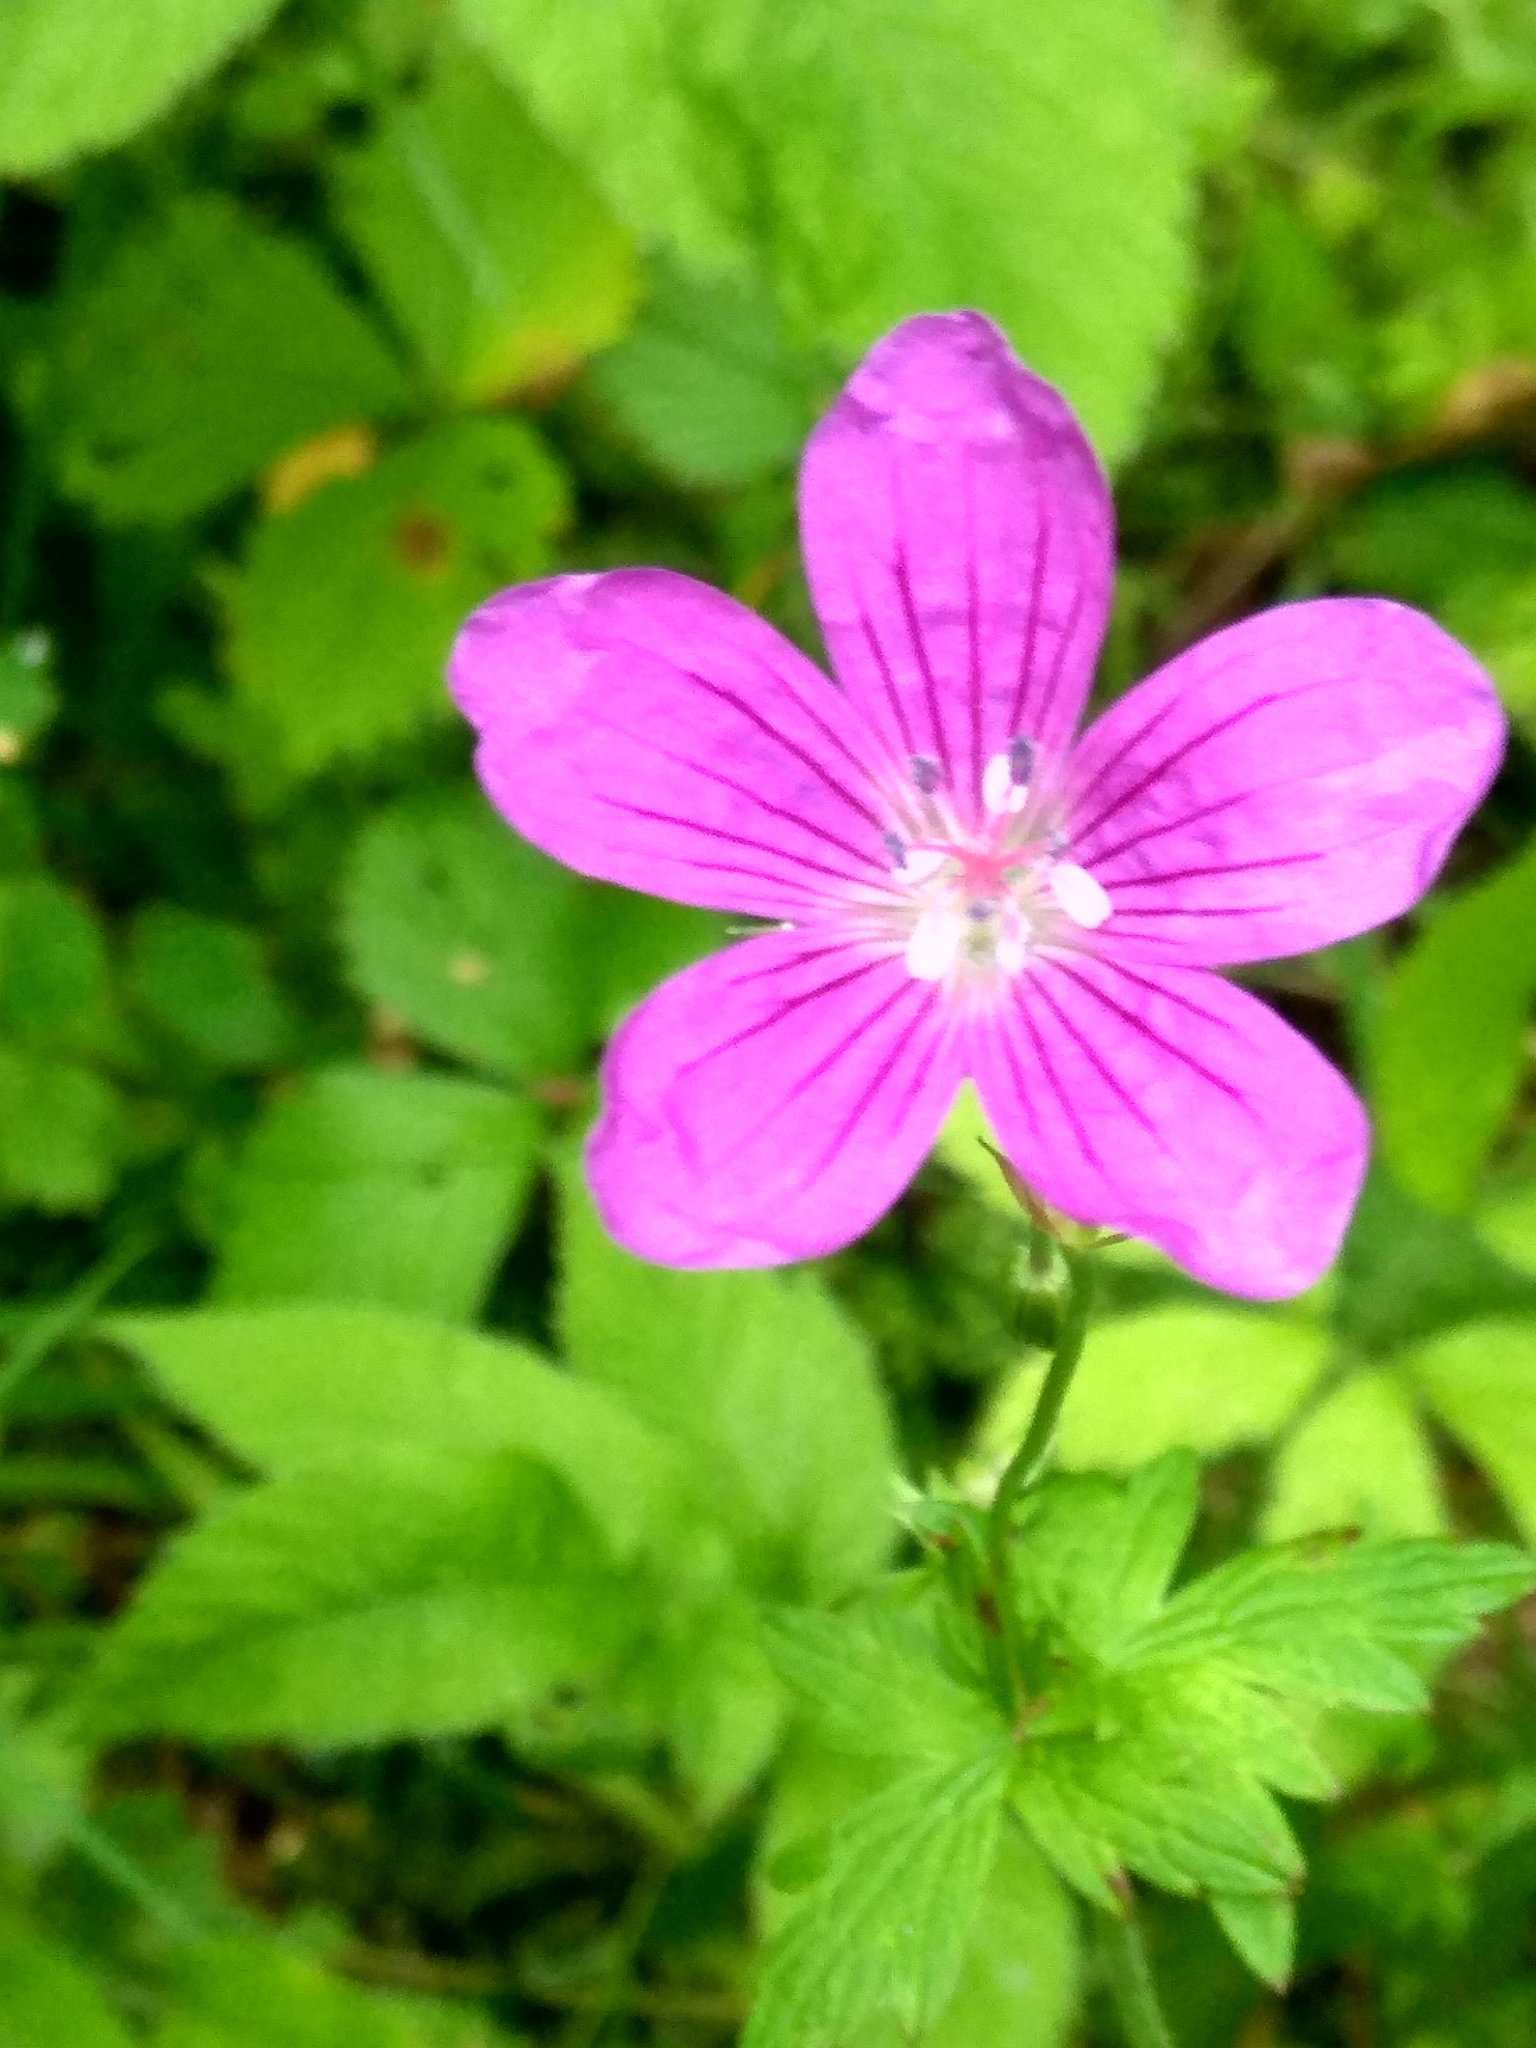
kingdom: Plantae
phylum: Tracheophyta
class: Magnoliopsida
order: Geraniales
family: Geraniaceae
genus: Geranium
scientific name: Geranium palustre
